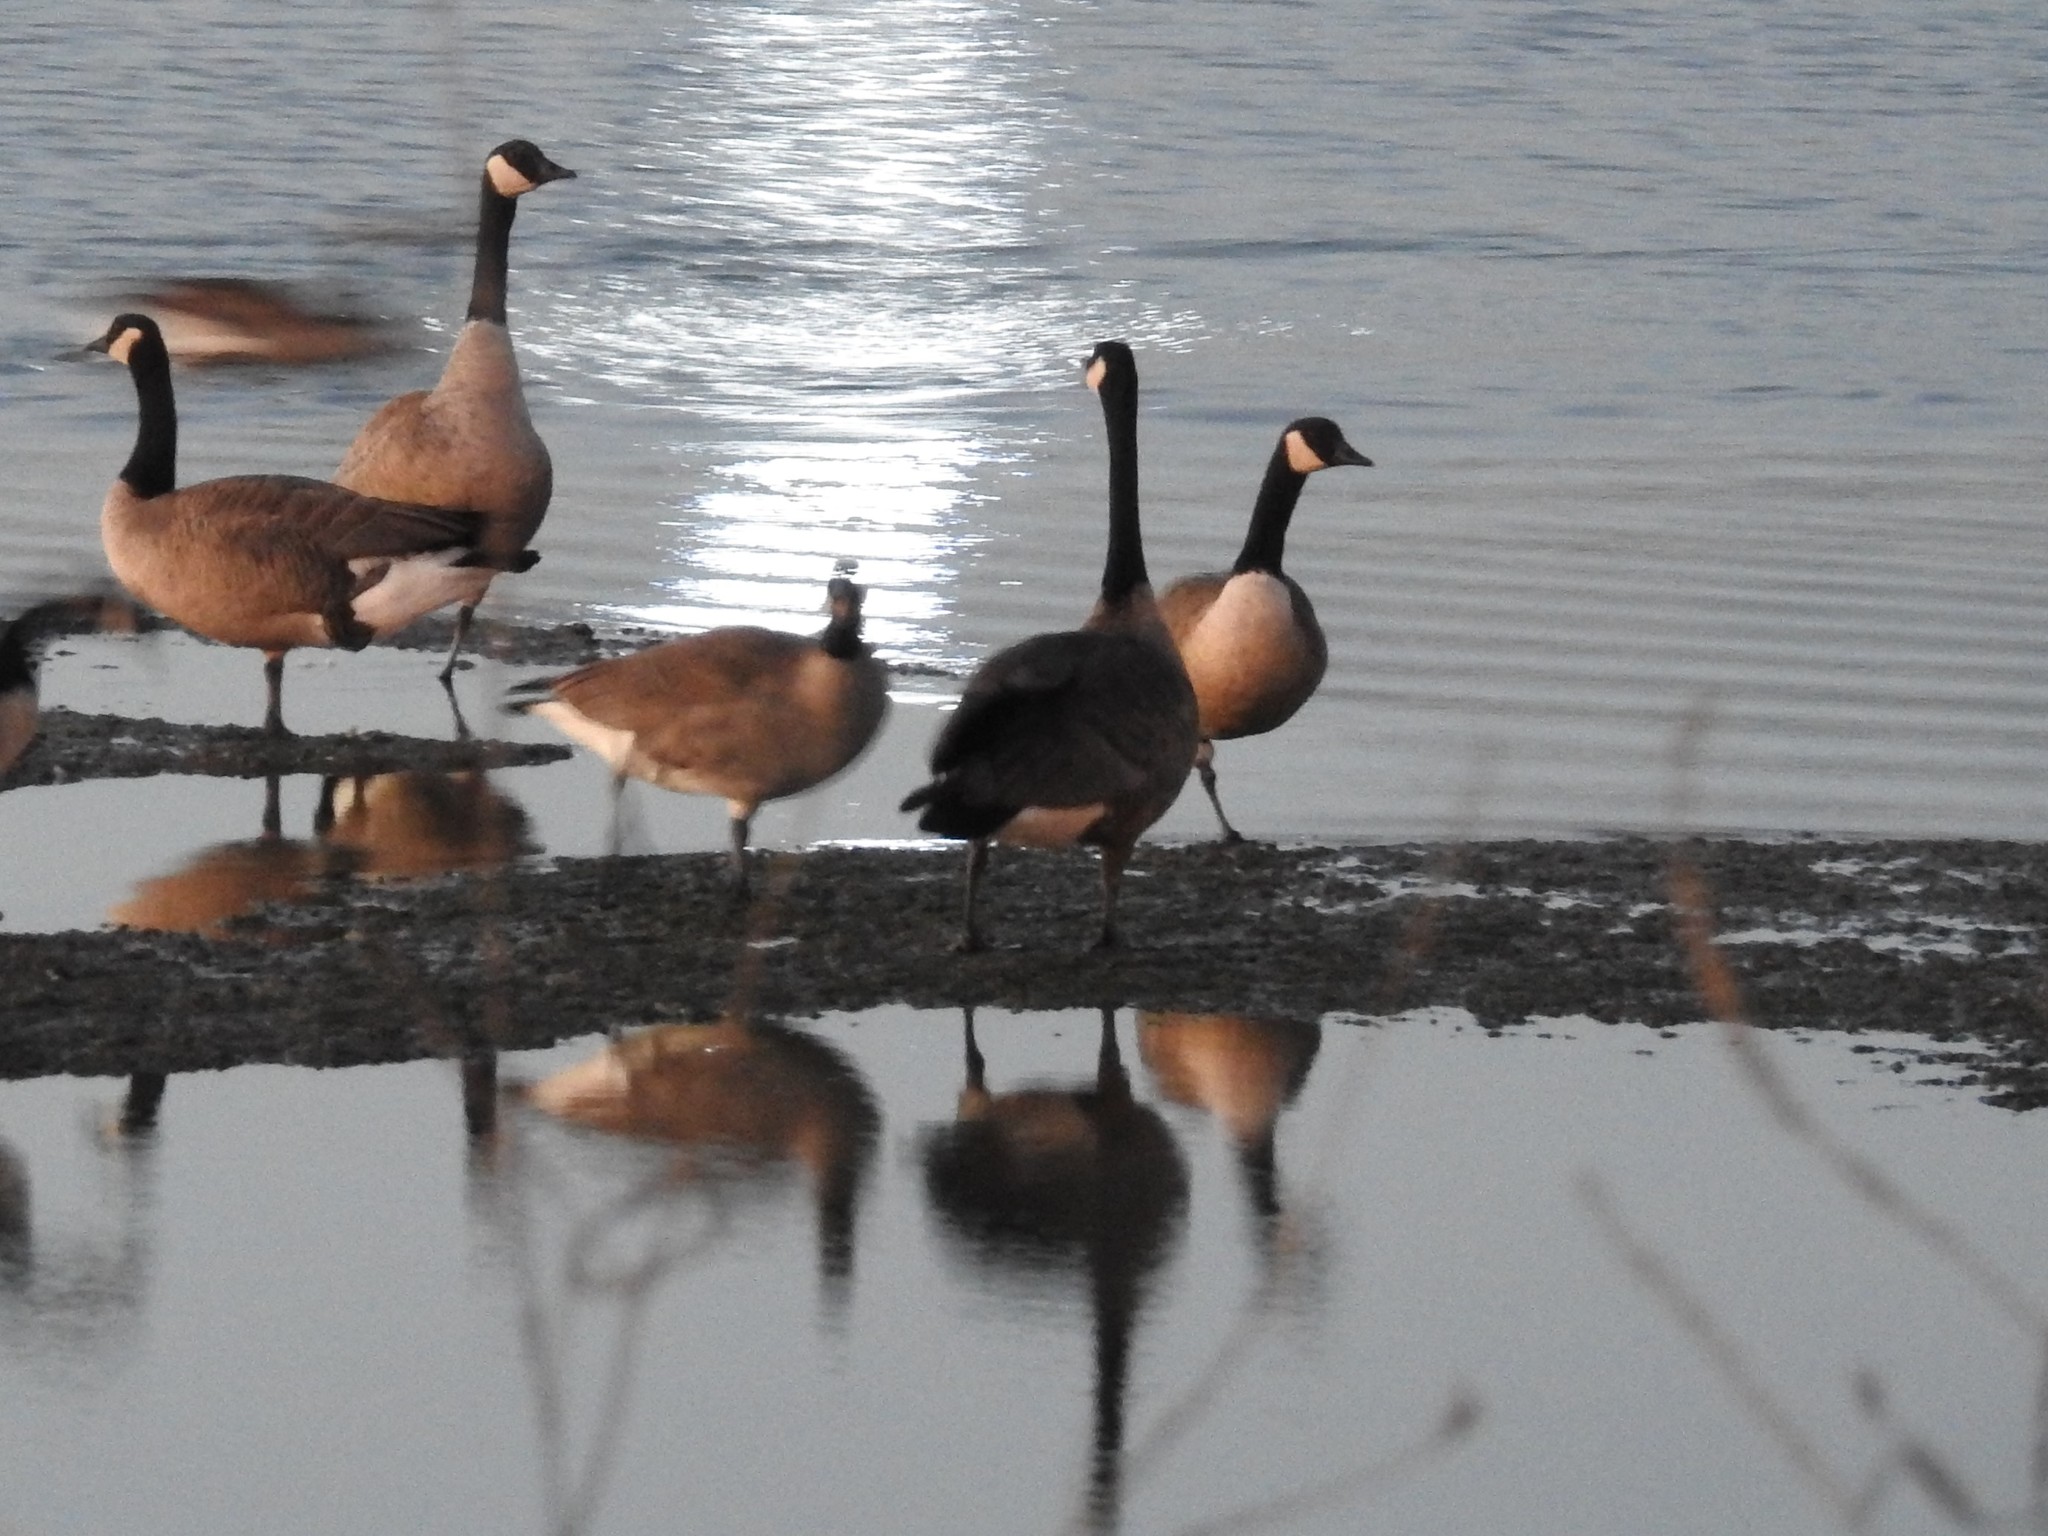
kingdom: Animalia
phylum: Chordata
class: Aves
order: Anseriformes
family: Anatidae
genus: Branta
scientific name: Branta canadensis
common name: Canada goose
